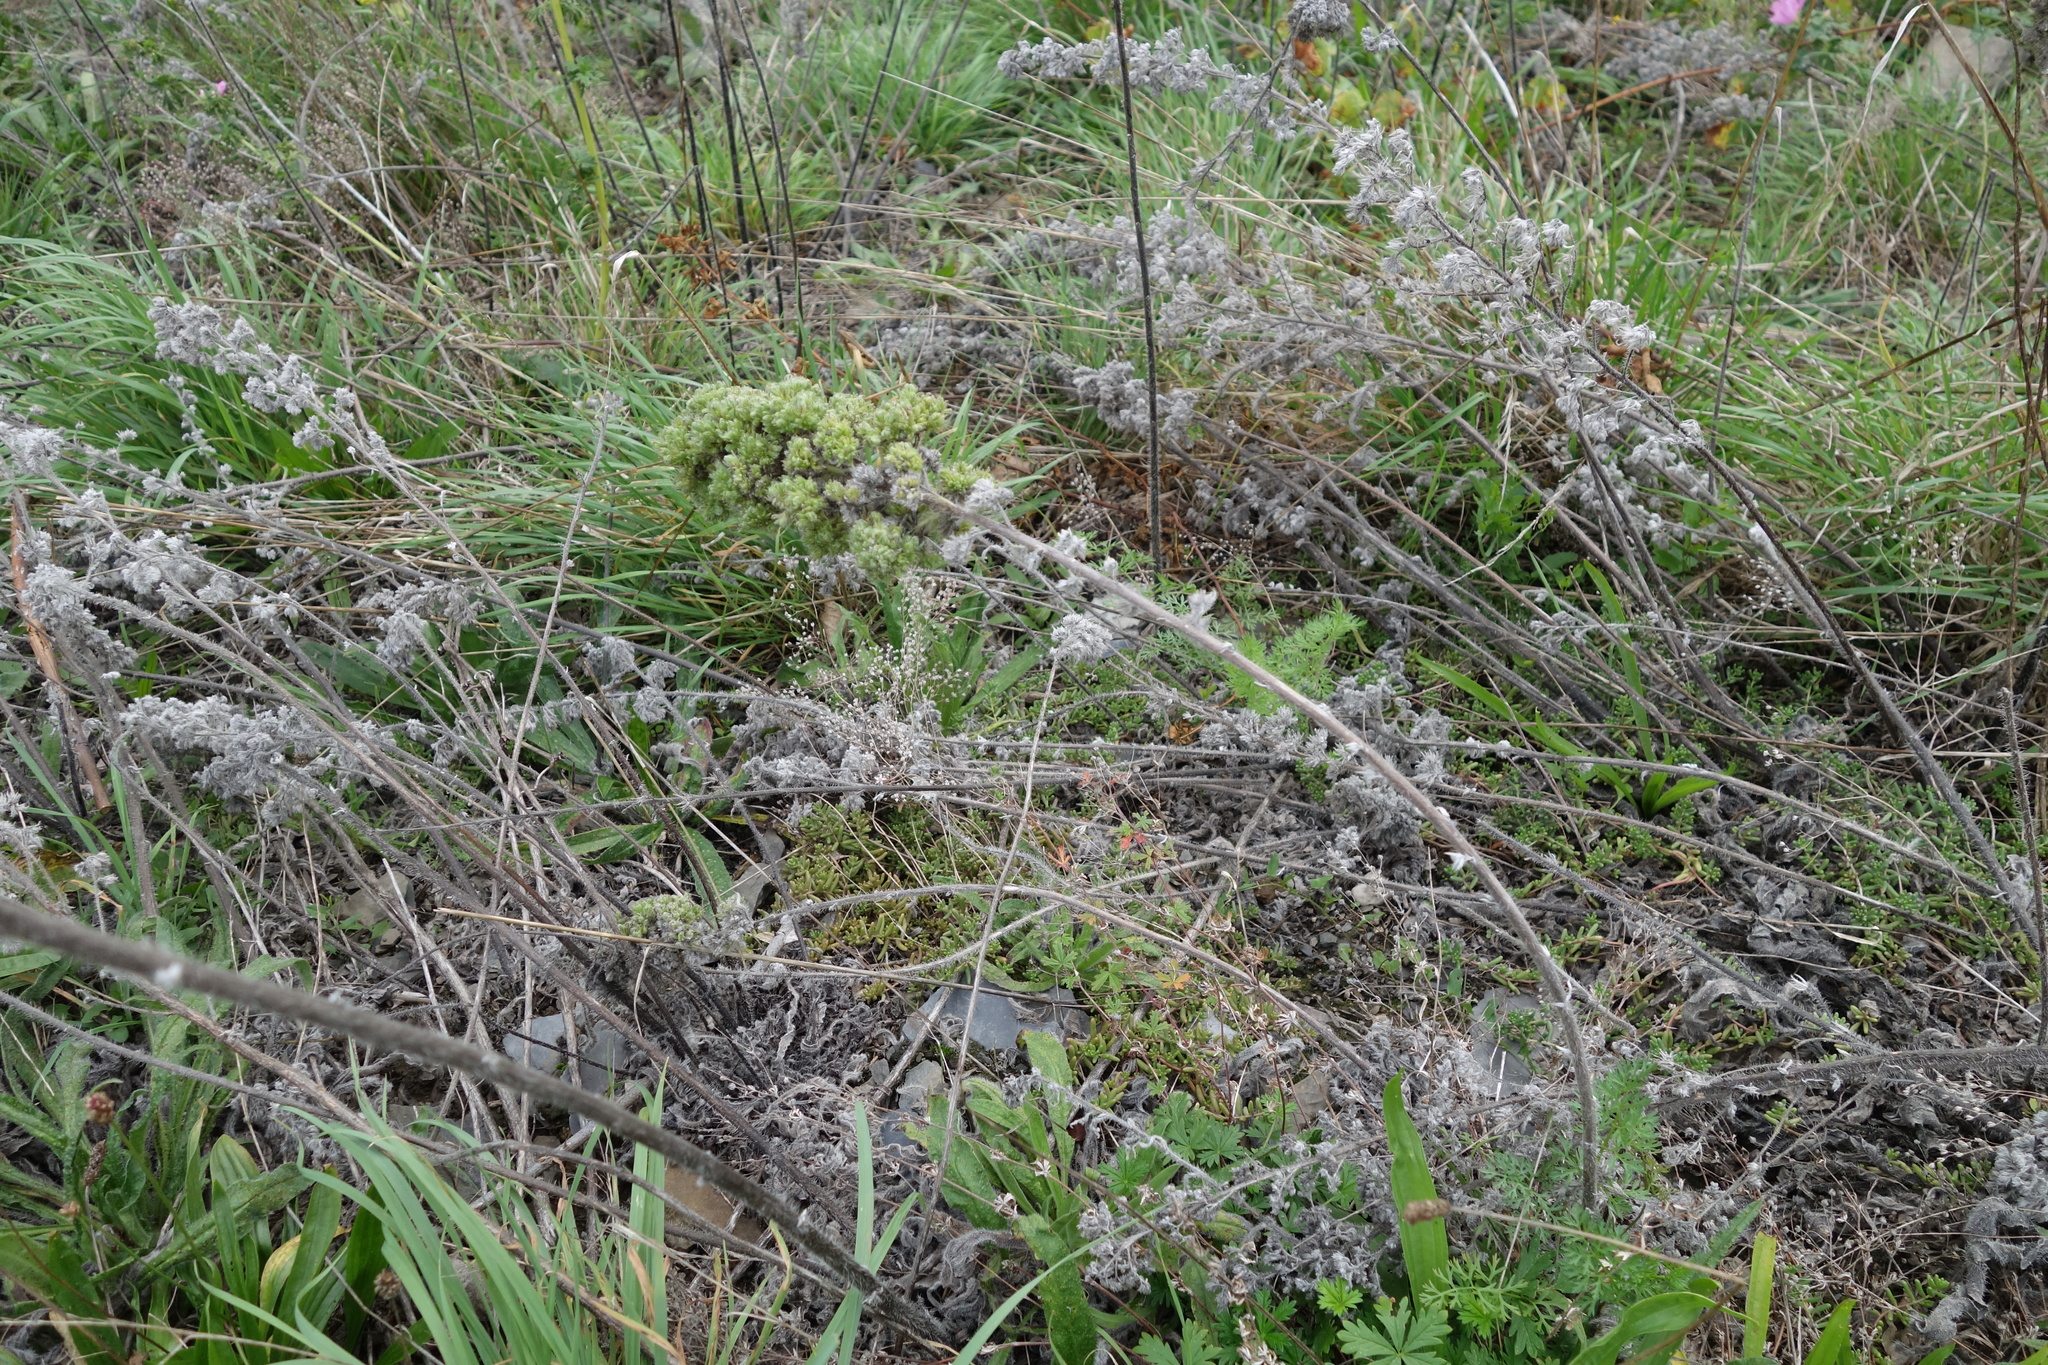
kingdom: Animalia
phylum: Arthropoda
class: Arachnida
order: Trombidiformes
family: Eriophyidae
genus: Aceria
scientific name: Aceria echii
